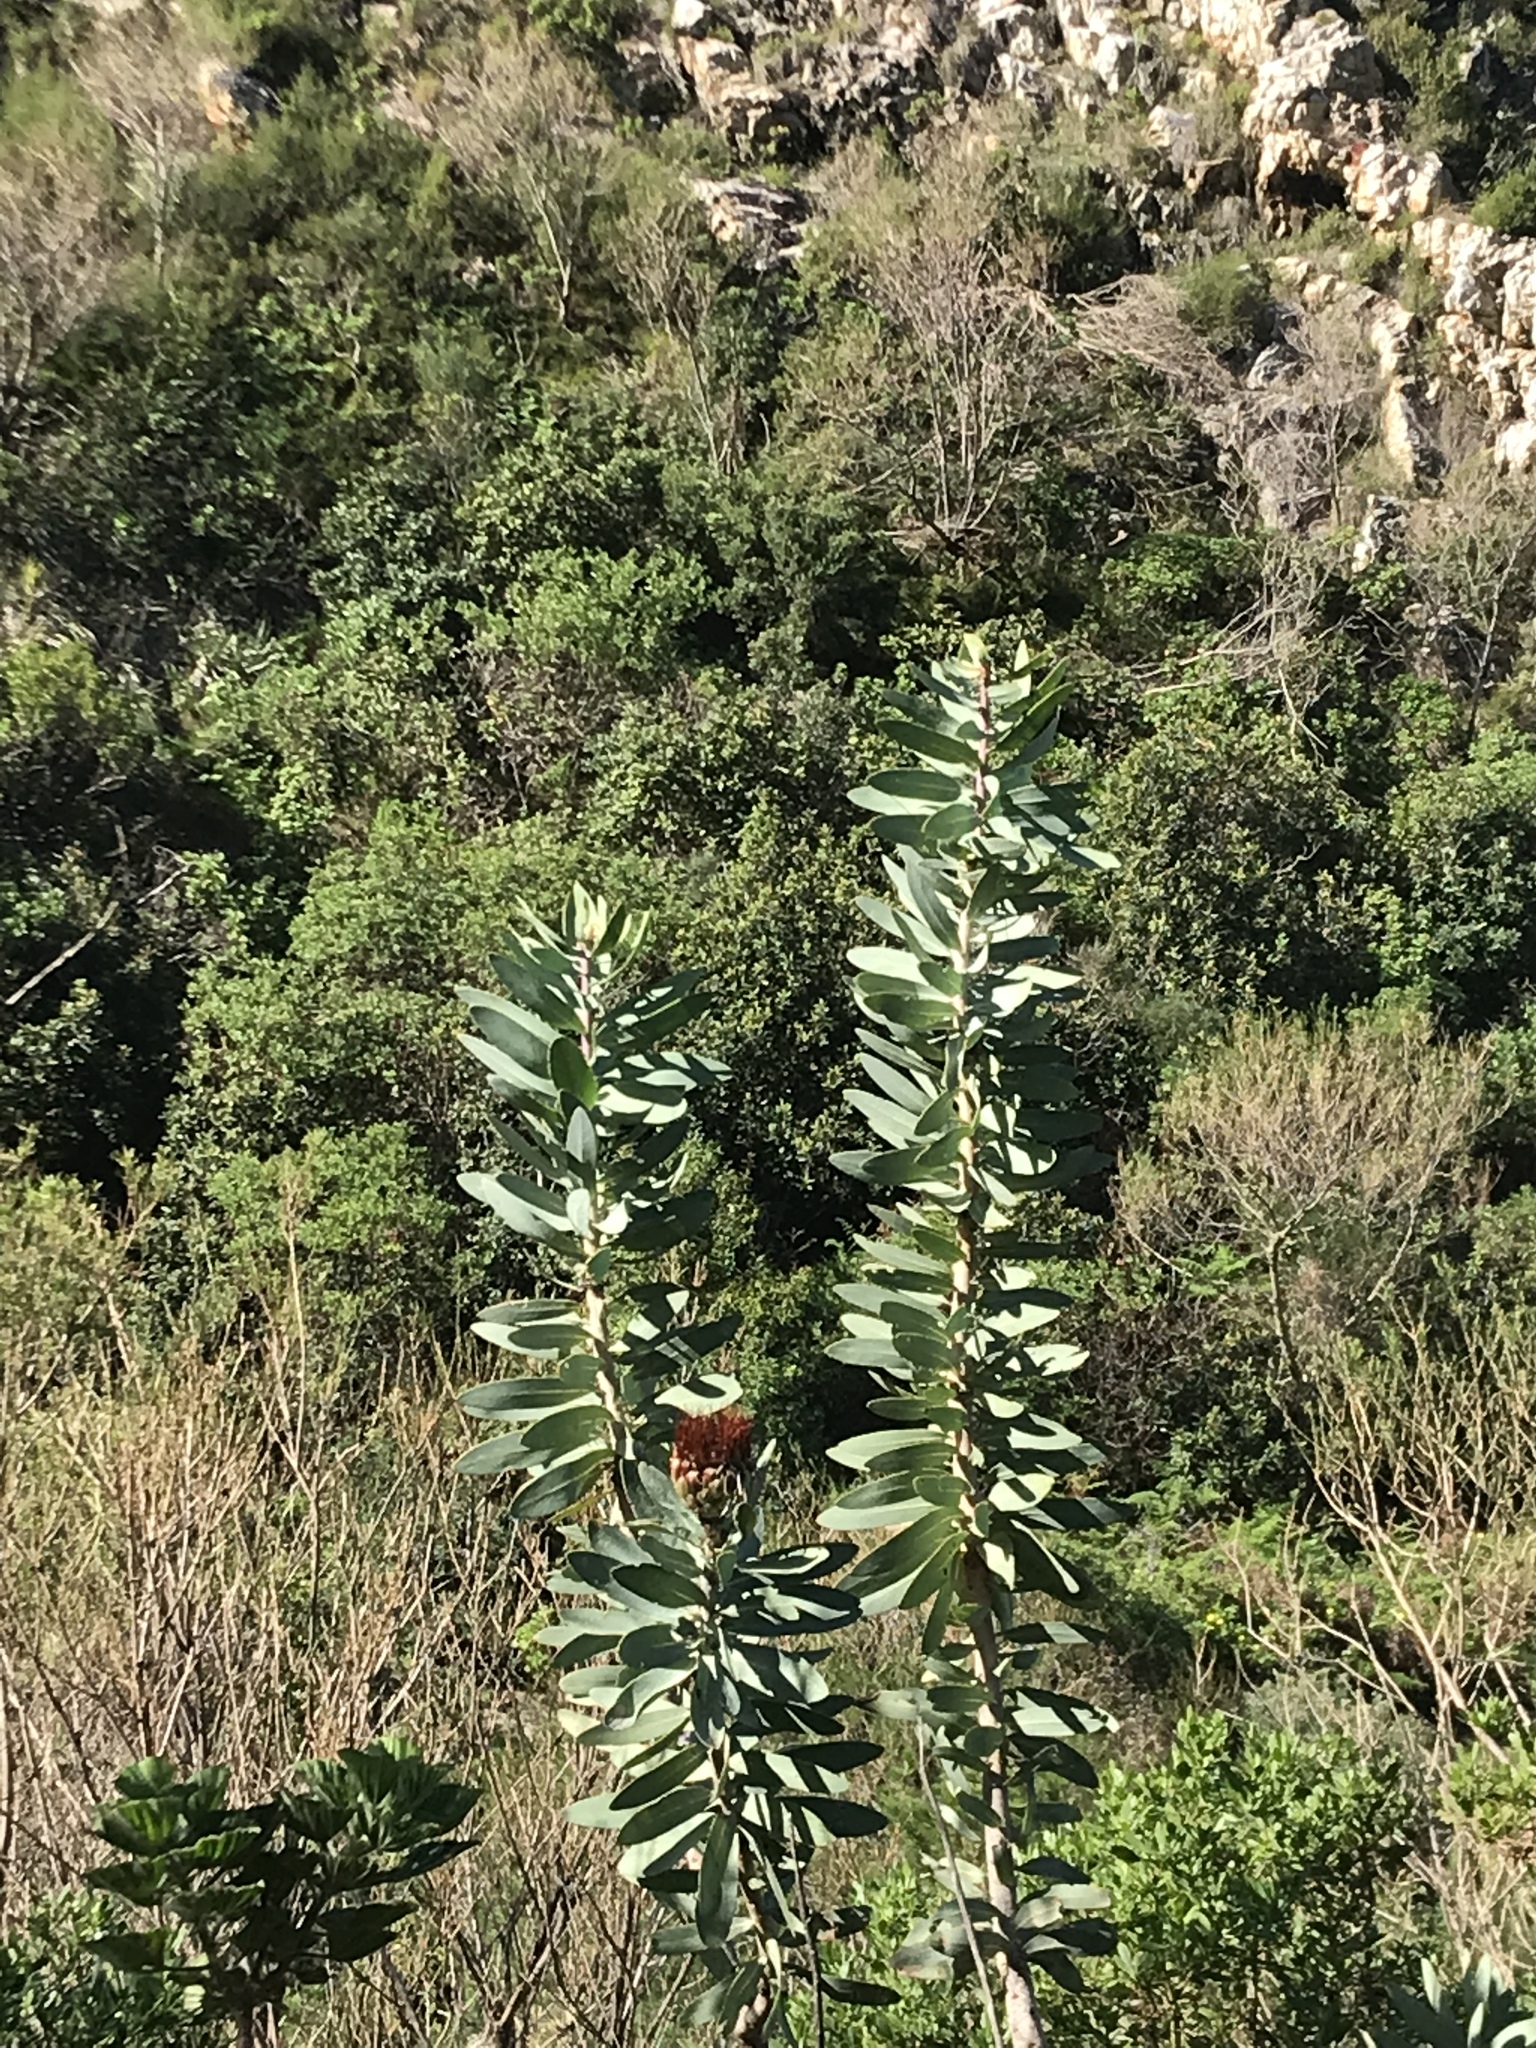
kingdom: Plantae
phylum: Tracheophyta
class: Magnoliopsida
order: Proteales
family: Proteaceae
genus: Protea
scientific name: Protea nitida
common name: Tree protea
